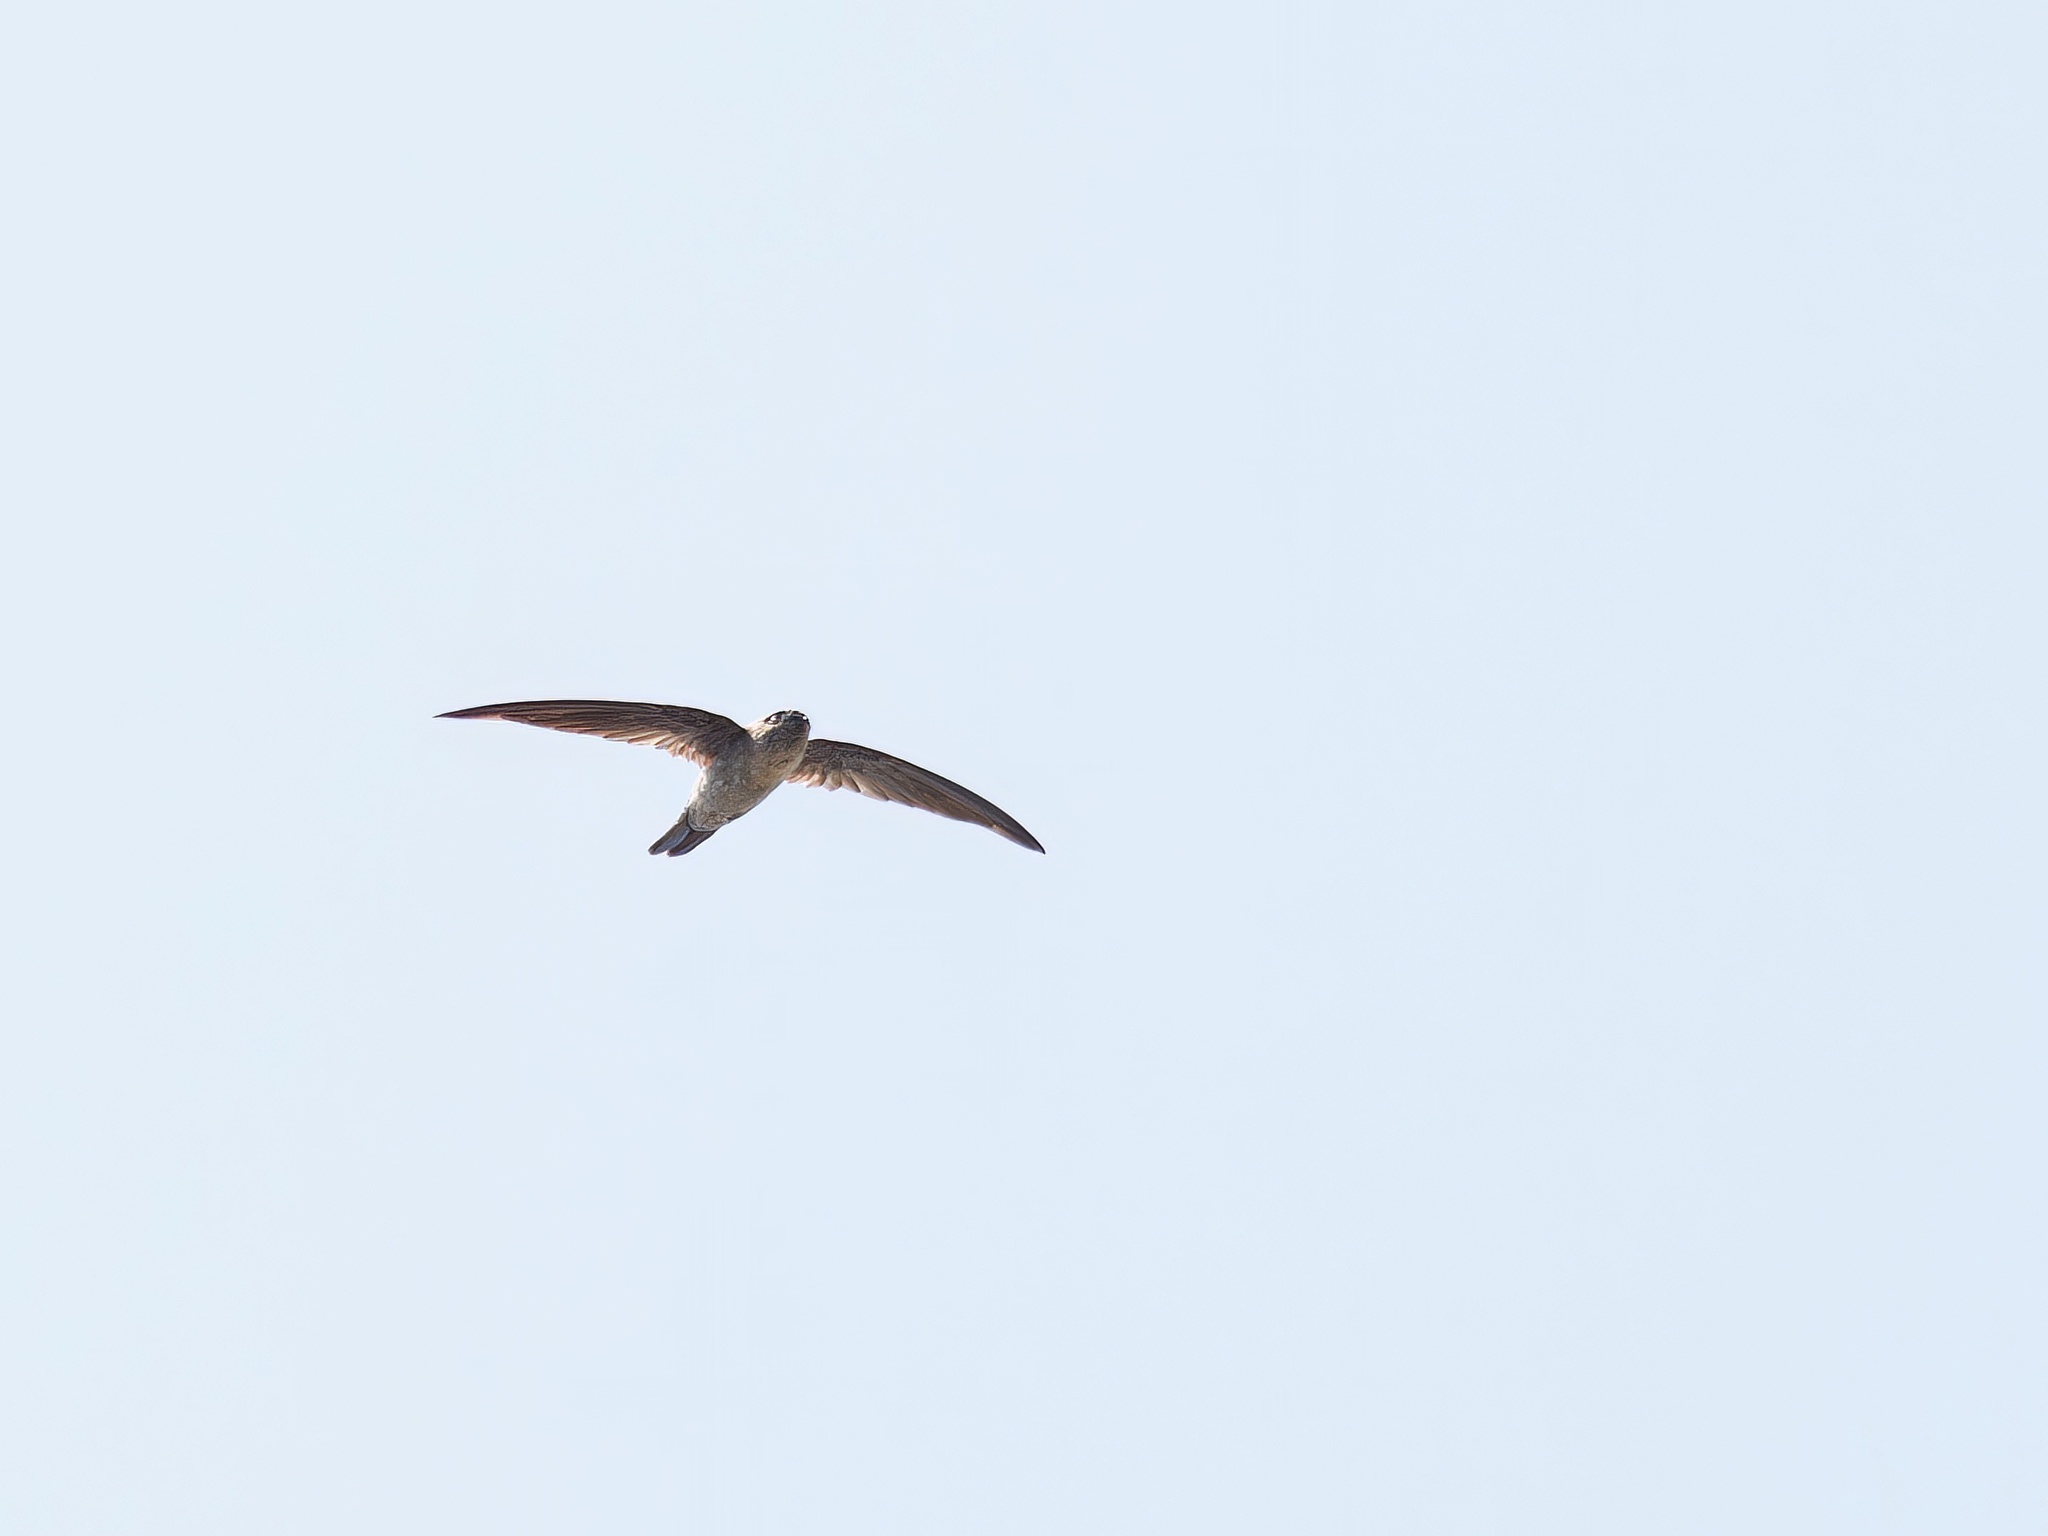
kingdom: Animalia
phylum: Chordata
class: Aves
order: Apodiformes
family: Apodidae
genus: Aerodramus
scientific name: Aerodramus germani
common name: Germain's swiftlet
